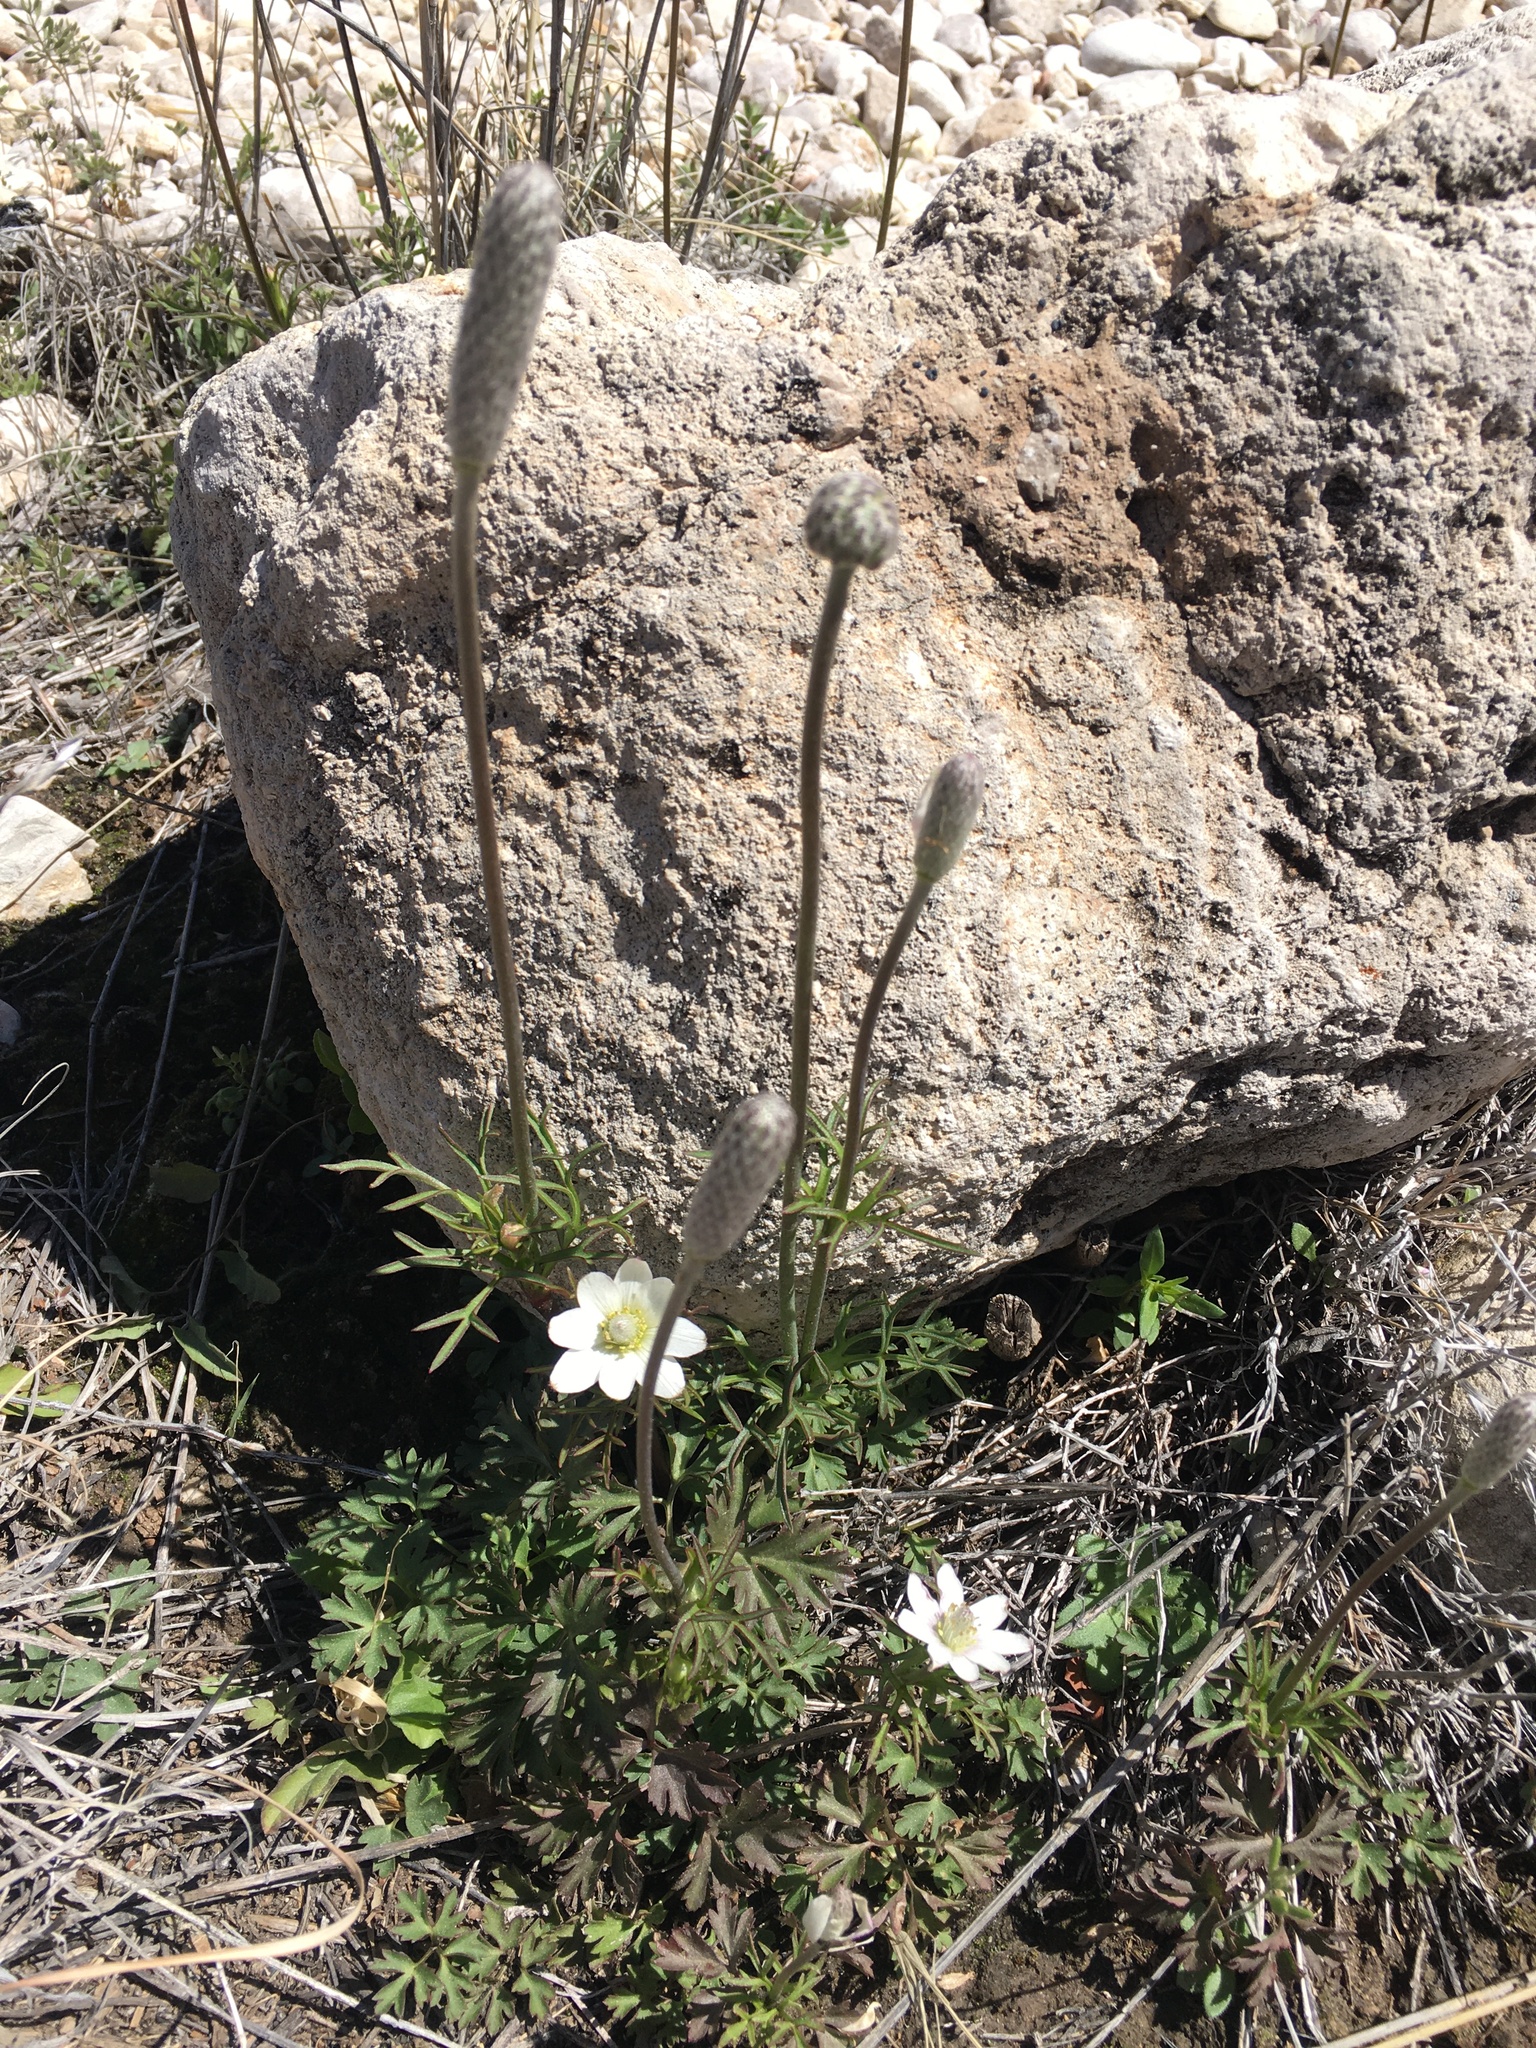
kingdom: Plantae
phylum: Tracheophyta
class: Magnoliopsida
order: Ranunculales
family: Ranunculaceae
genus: Anemone
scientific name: Anemone tuberosa
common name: Desert anemone
